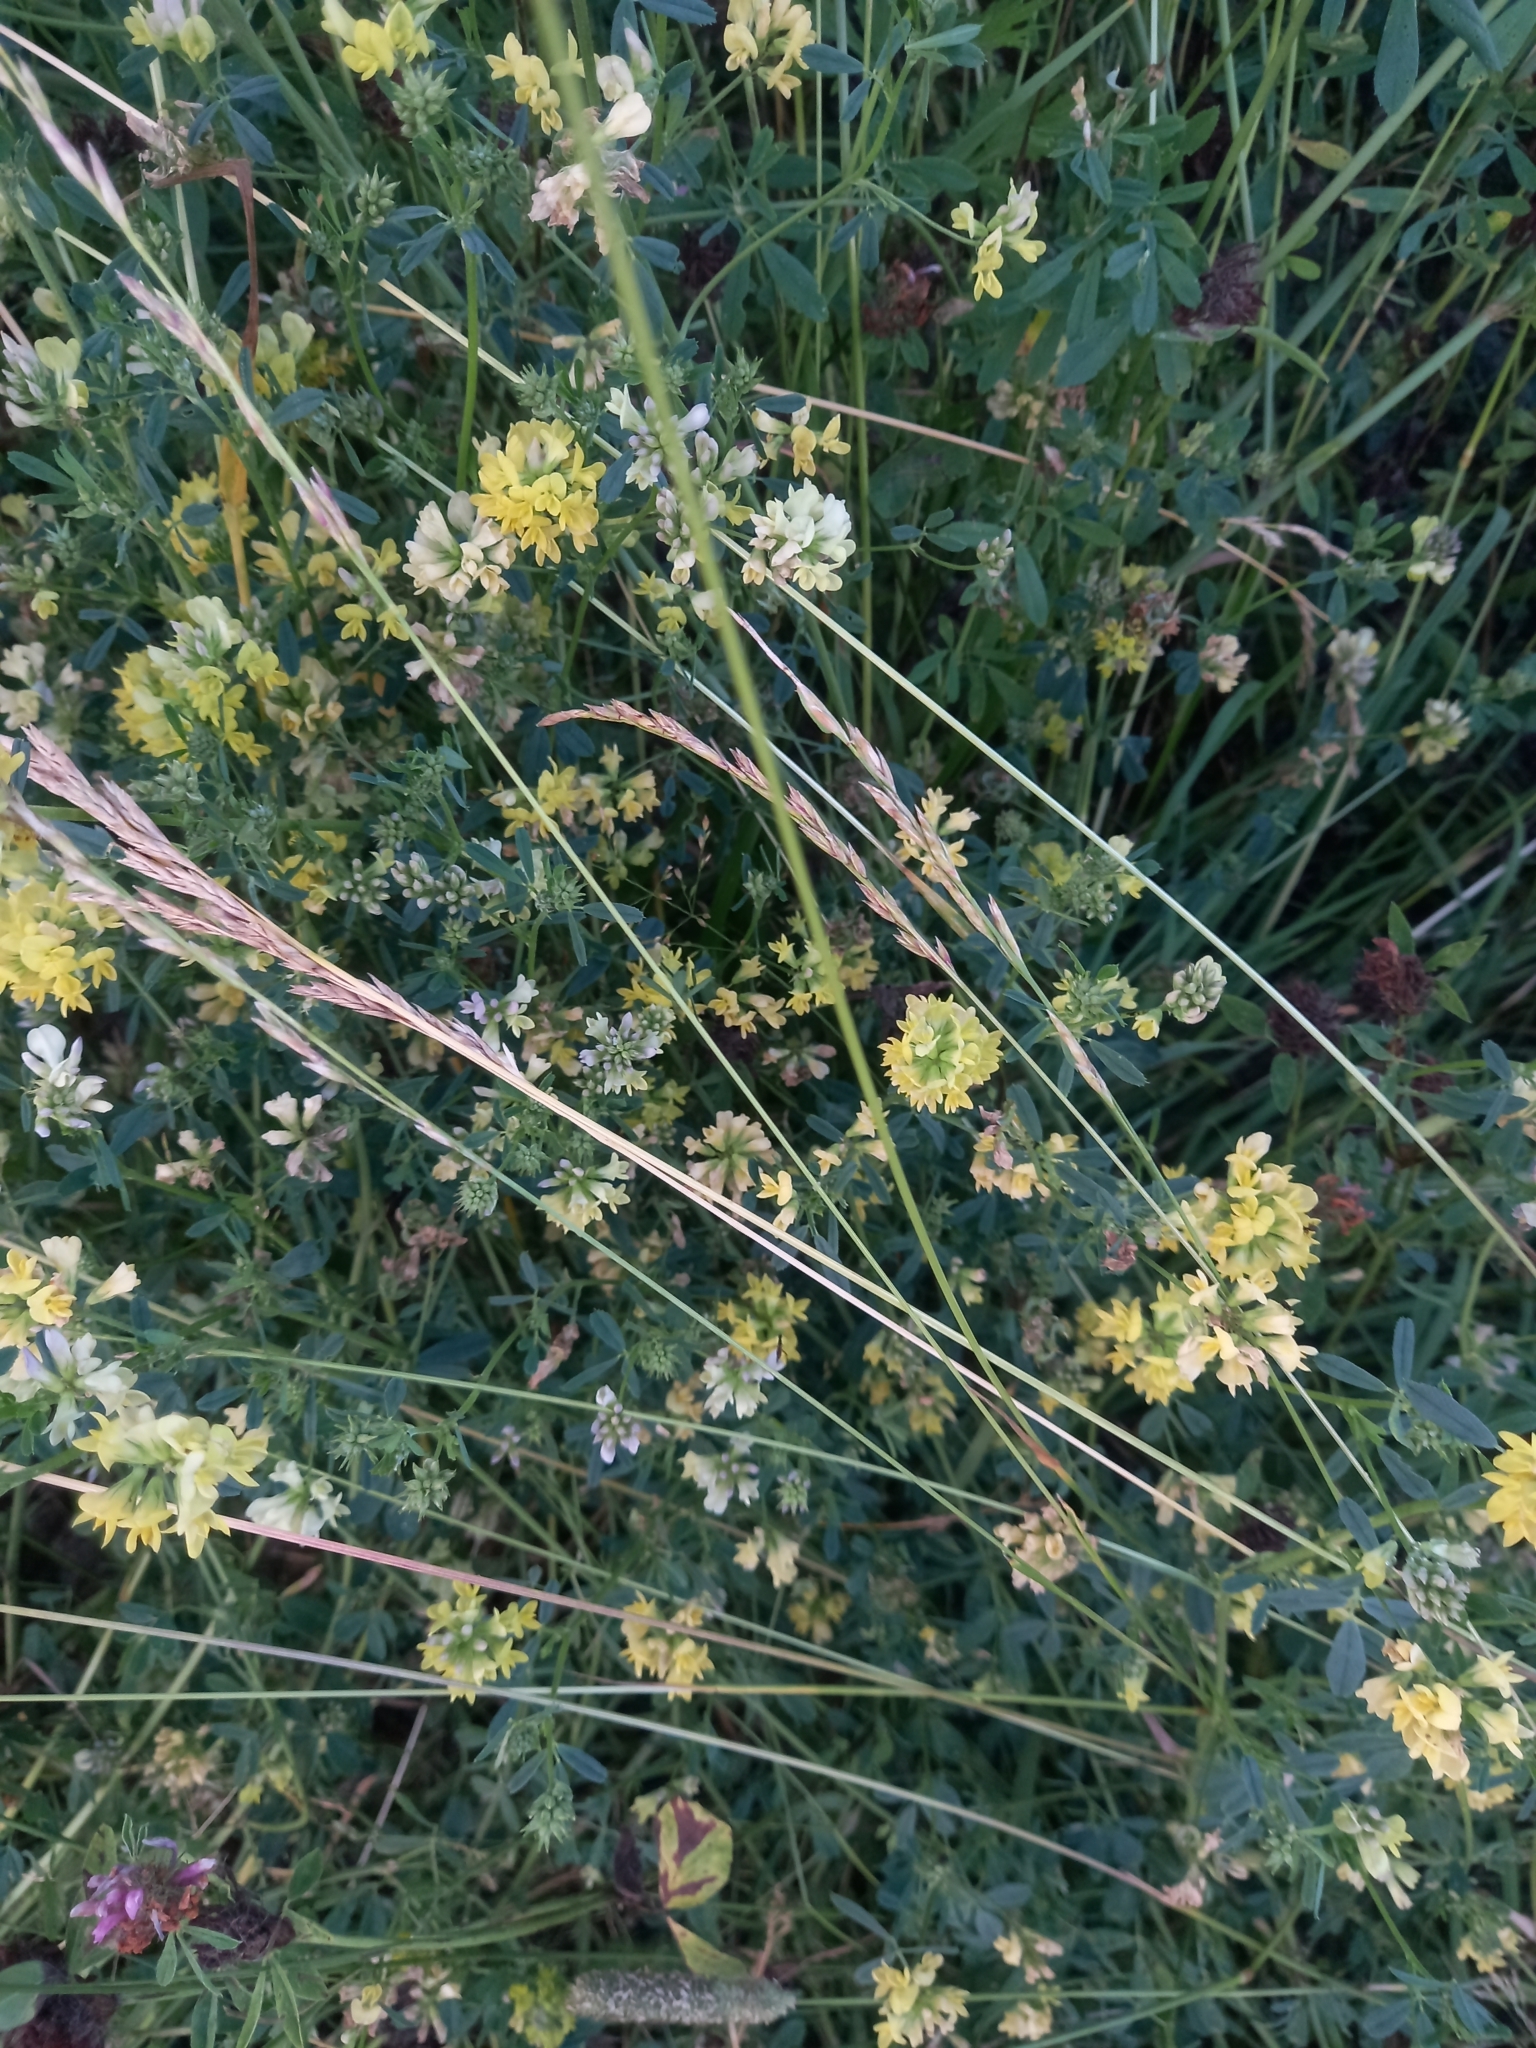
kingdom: Plantae
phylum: Tracheophyta
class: Magnoliopsida
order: Fabales
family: Fabaceae
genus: Medicago
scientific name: Medicago varia
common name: Sand lucerne
